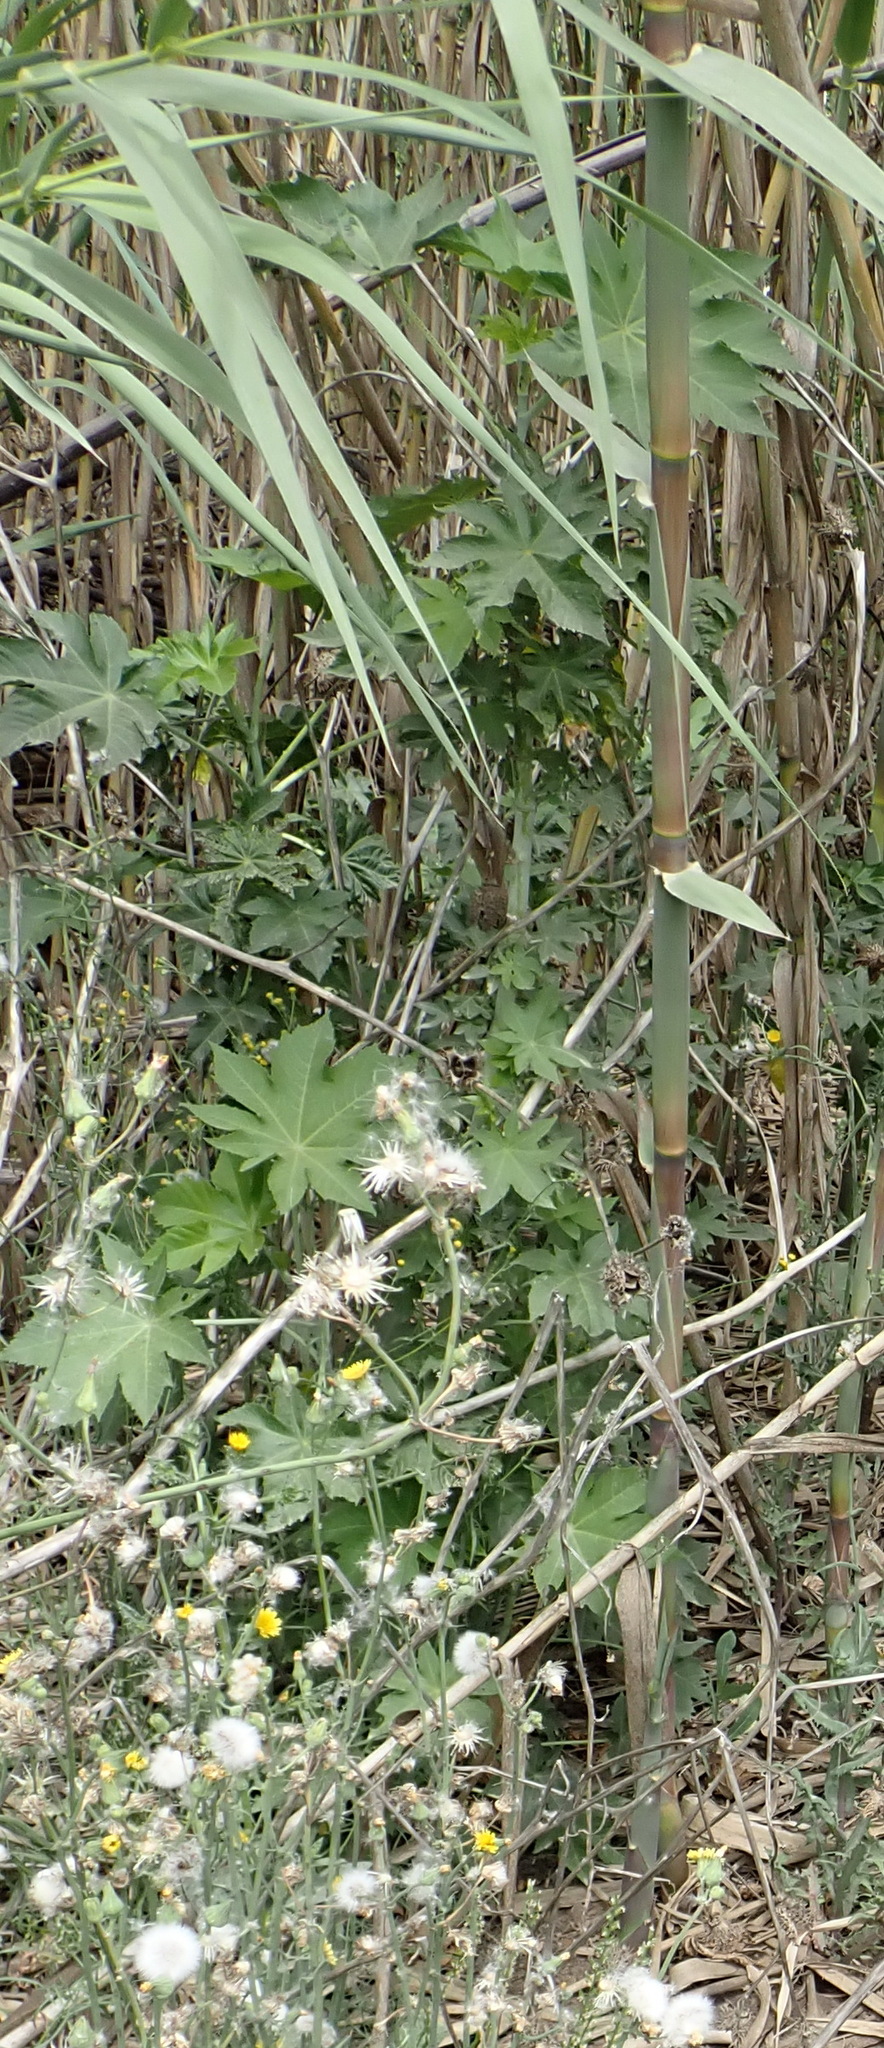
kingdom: Plantae
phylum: Tracheophyta
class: Magnoliopsida
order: Malpighiales
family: Euphorbiaceae
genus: Ricinus
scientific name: Ricinus communis
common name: Castor-oil-plant
